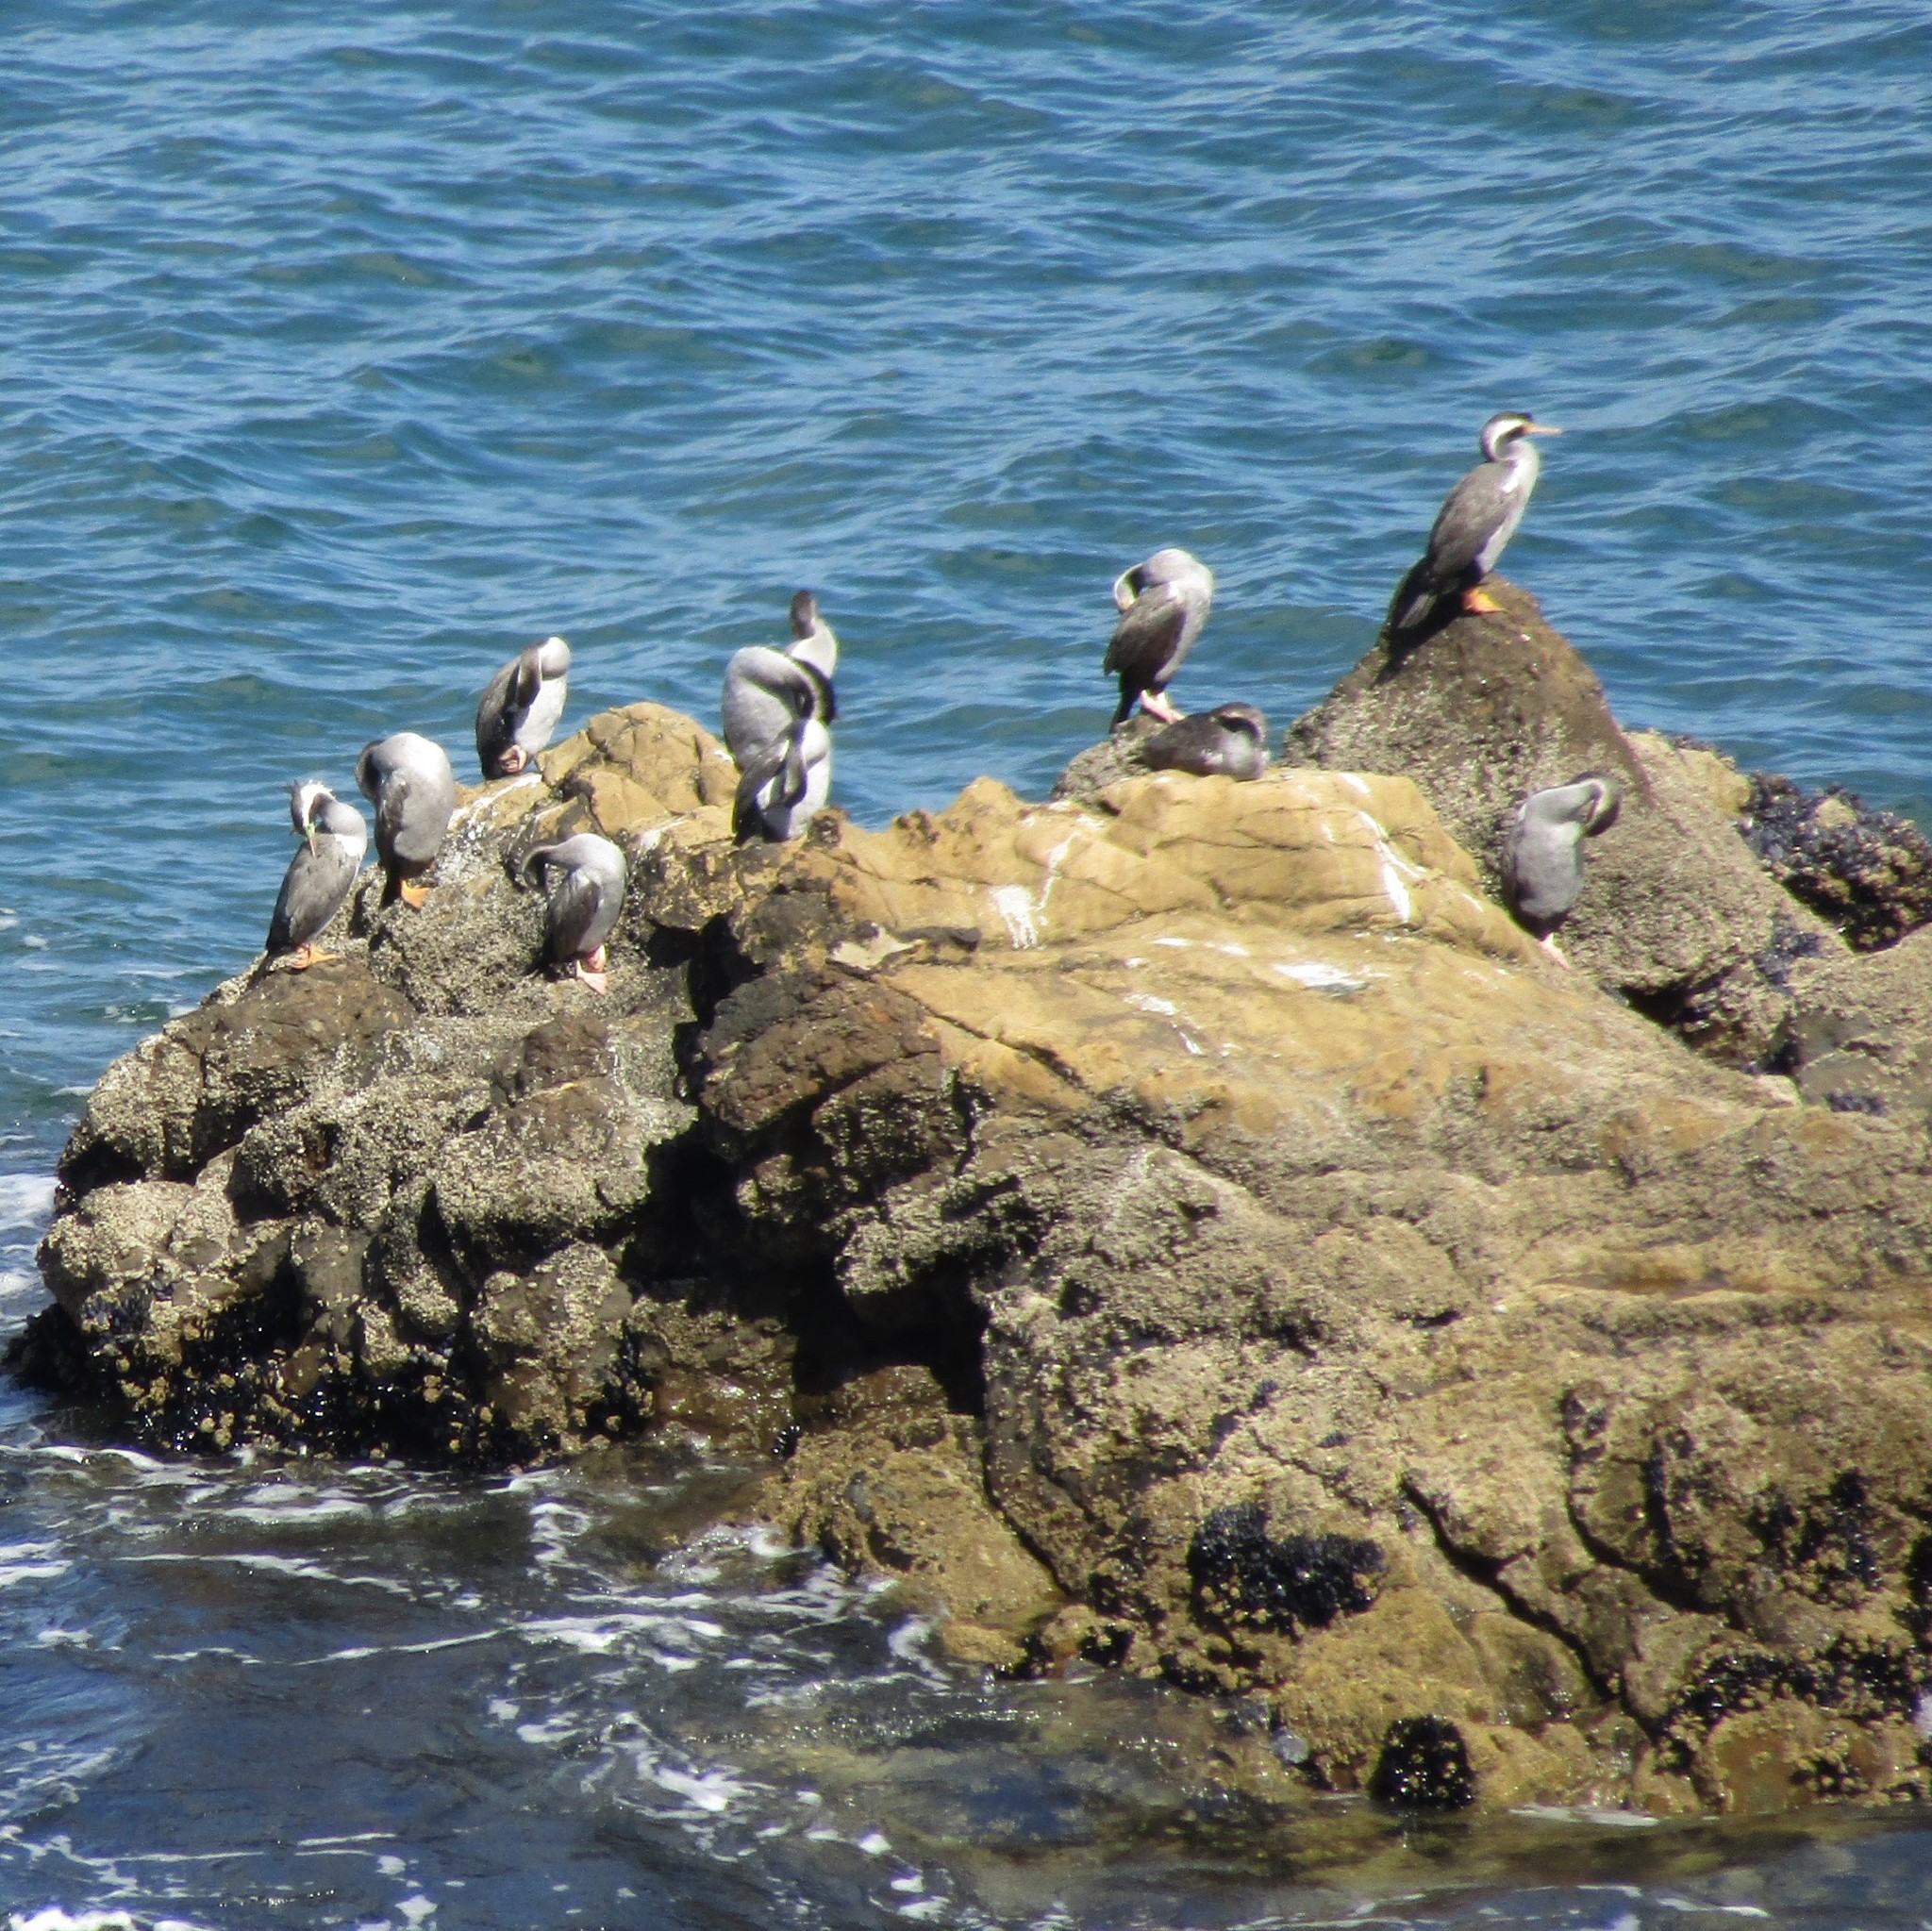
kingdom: Animalia
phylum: Chordata
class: Aves
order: Suliformes
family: Phalacrocoracidae
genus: Phalacrocorax
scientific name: Phalacrocorax punctatus
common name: Spotted shag
